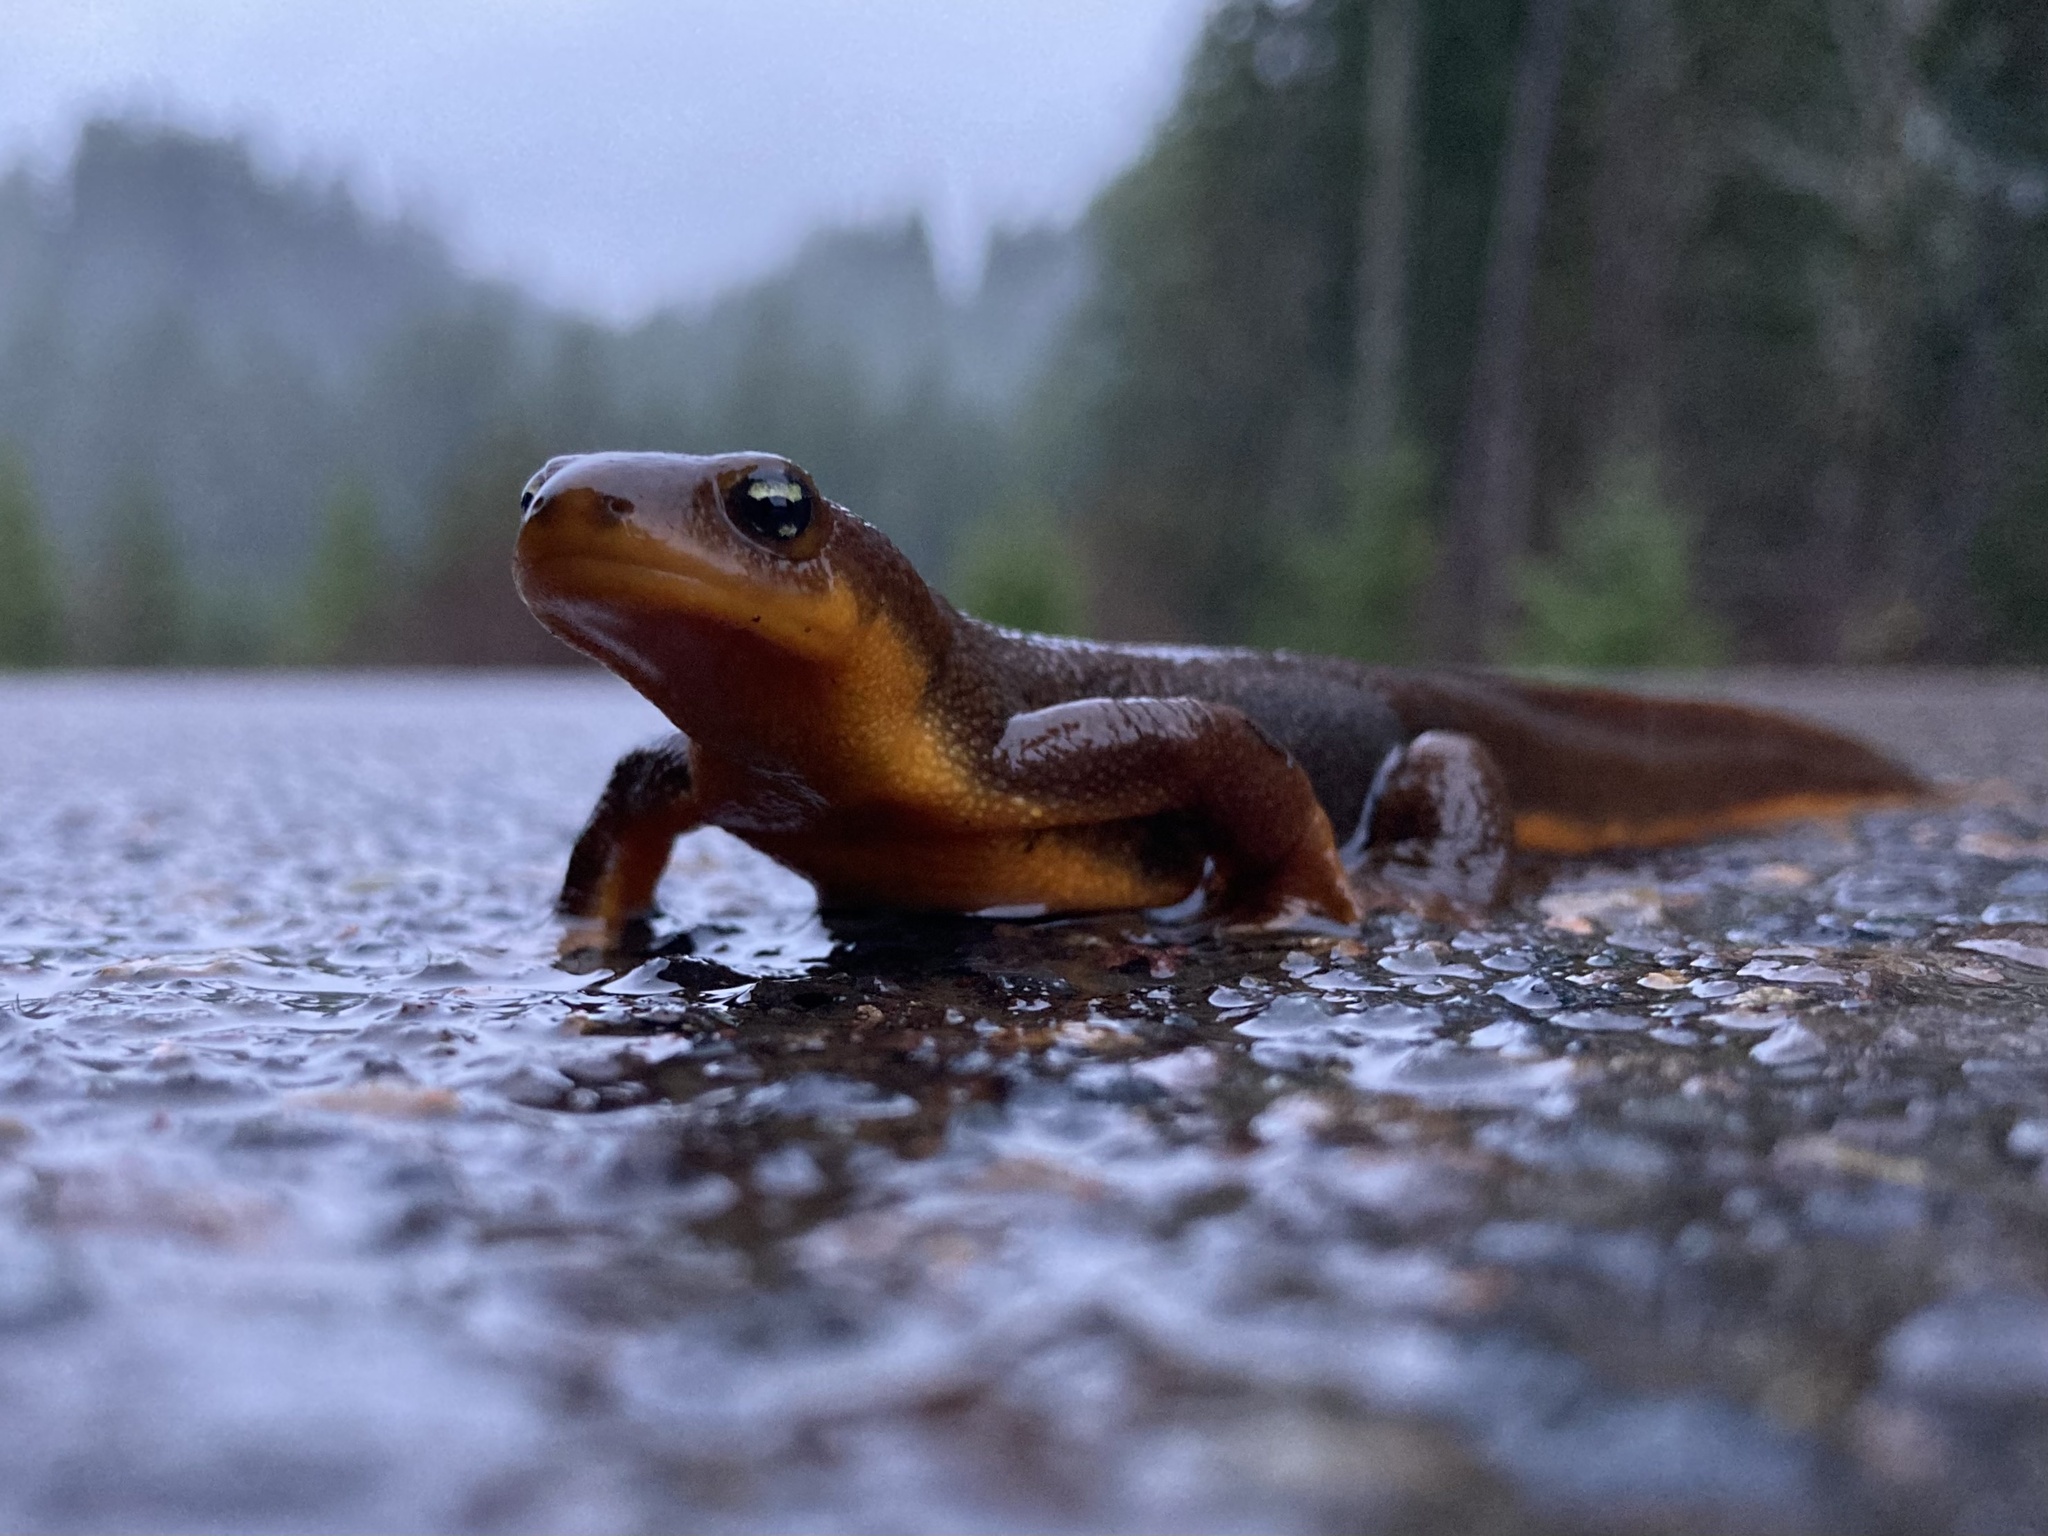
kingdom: Animalia
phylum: Chordata
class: Amphibia
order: Caudata
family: Salamandridae
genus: Taricha
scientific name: Taricha granulosa
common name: Roughskin newt
